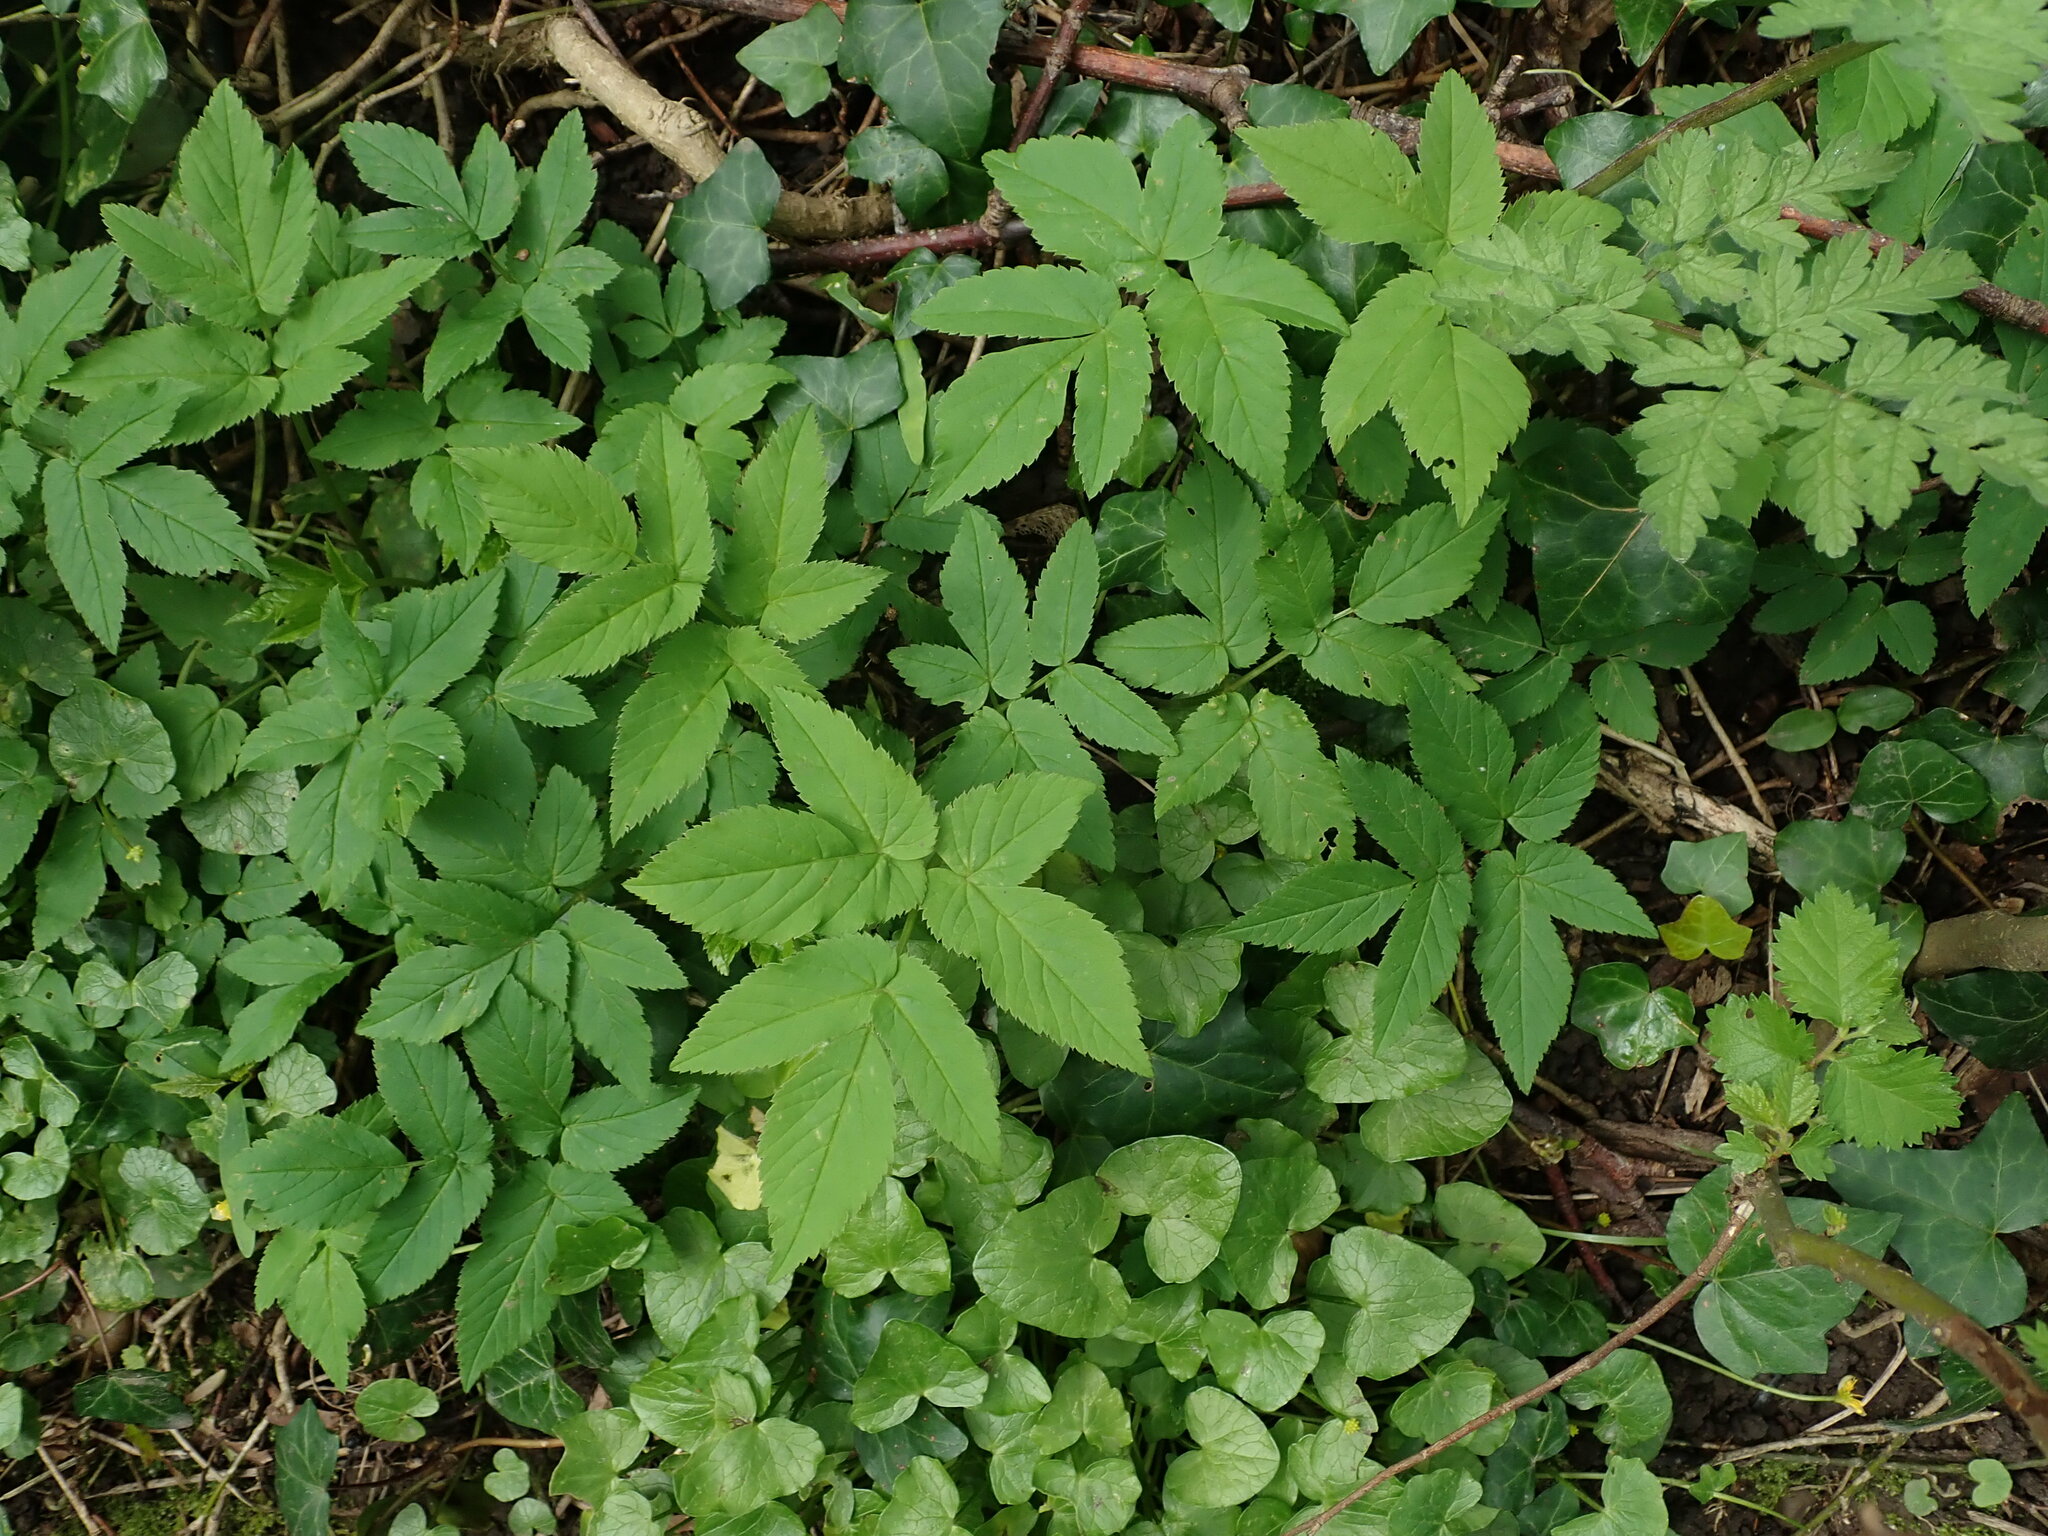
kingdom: Plantae
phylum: Tracheophyta
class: Magnoliopsida
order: Apiales
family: Apiaceae
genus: Aegopodium
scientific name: Aegopodium podagraria
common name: Ground-elder
